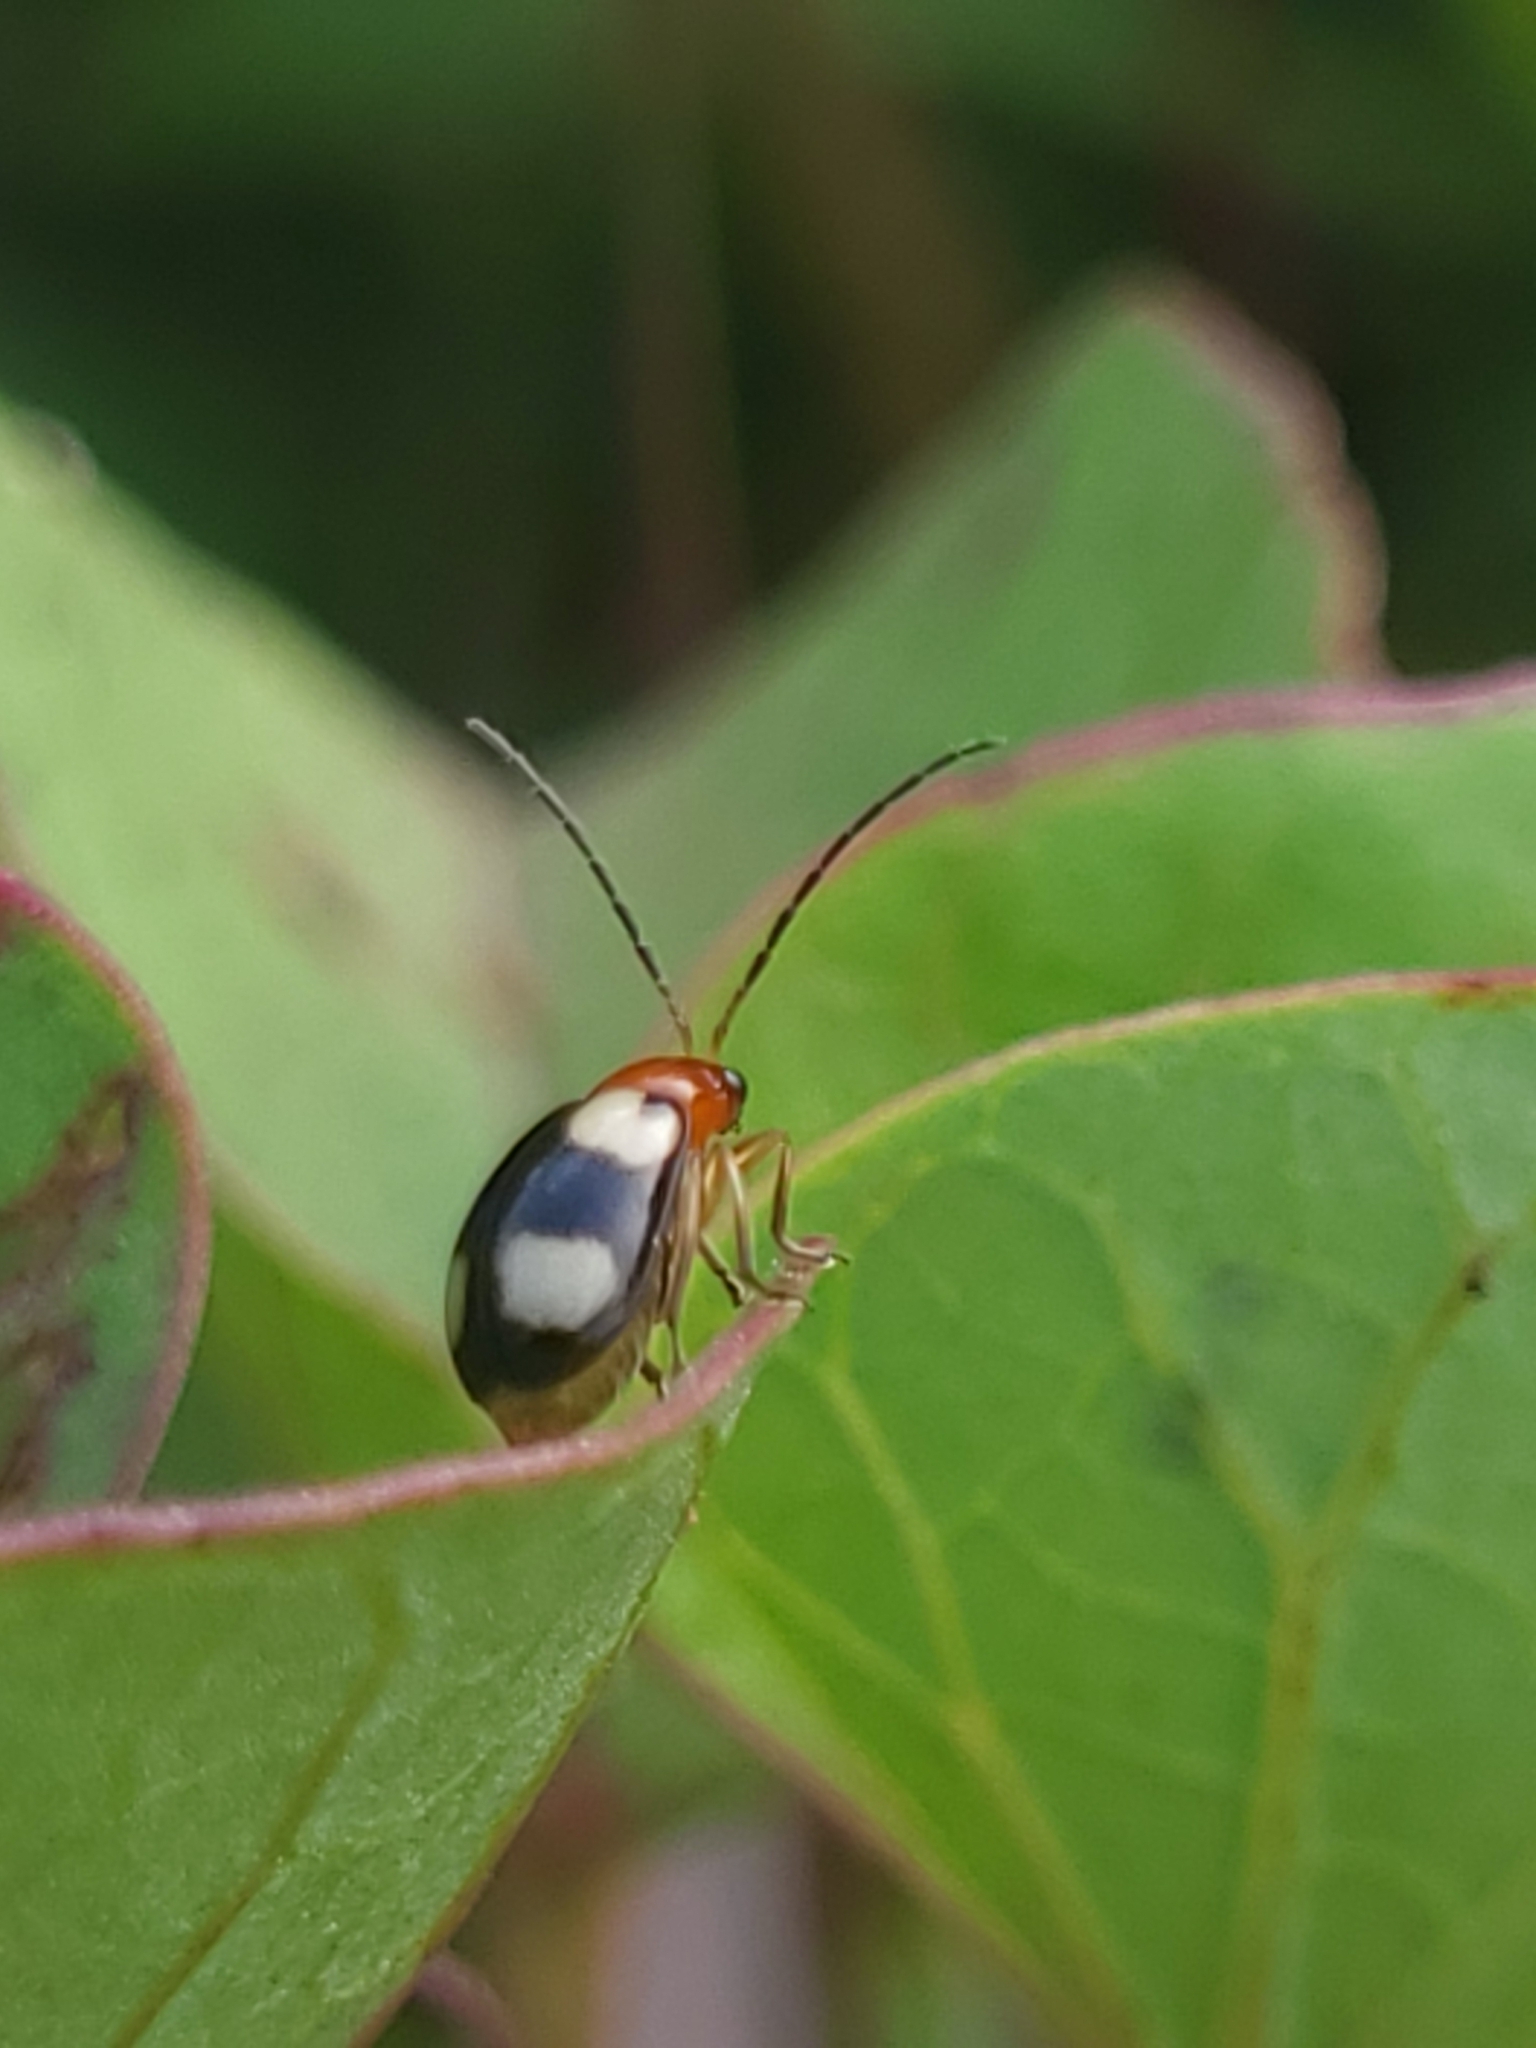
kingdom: Animalia
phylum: Arthropoda
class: Insecta
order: Coleoptera
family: Chrysomelidae
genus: Monolepta
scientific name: Monolepta signata
